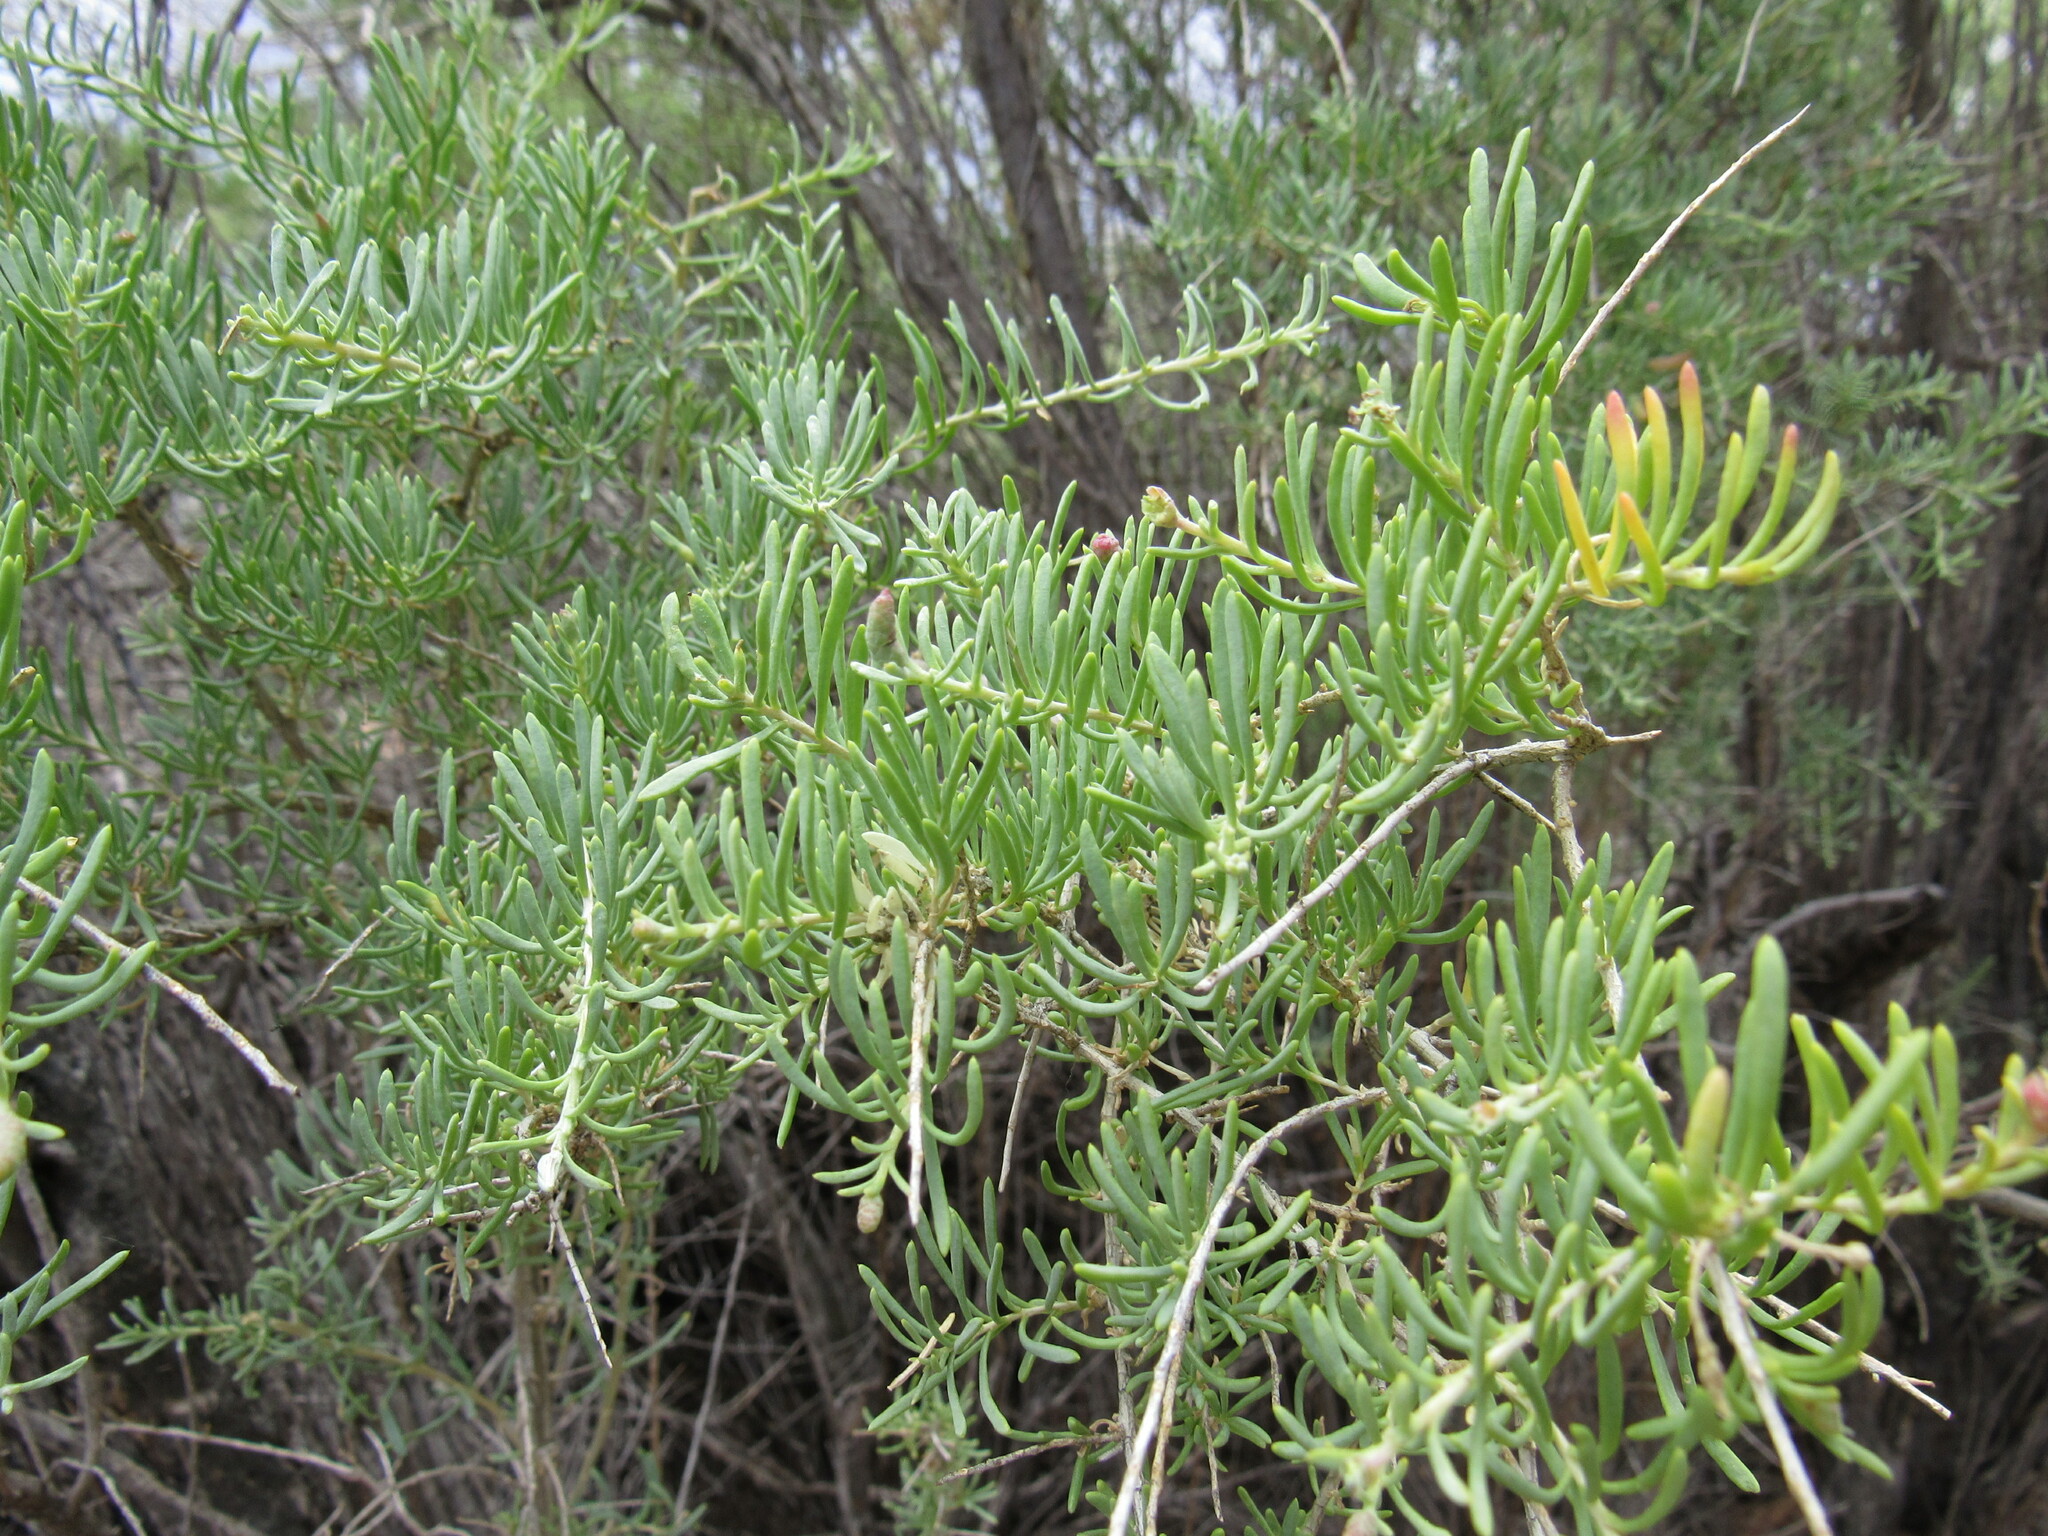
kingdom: Plantae
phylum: Tracheophyta
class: Magnoliopsida
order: Caryophyllales
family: Sarcobataceae
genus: Sarcobatus
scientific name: Sarcobatus vermiculatus
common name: Greasewood
